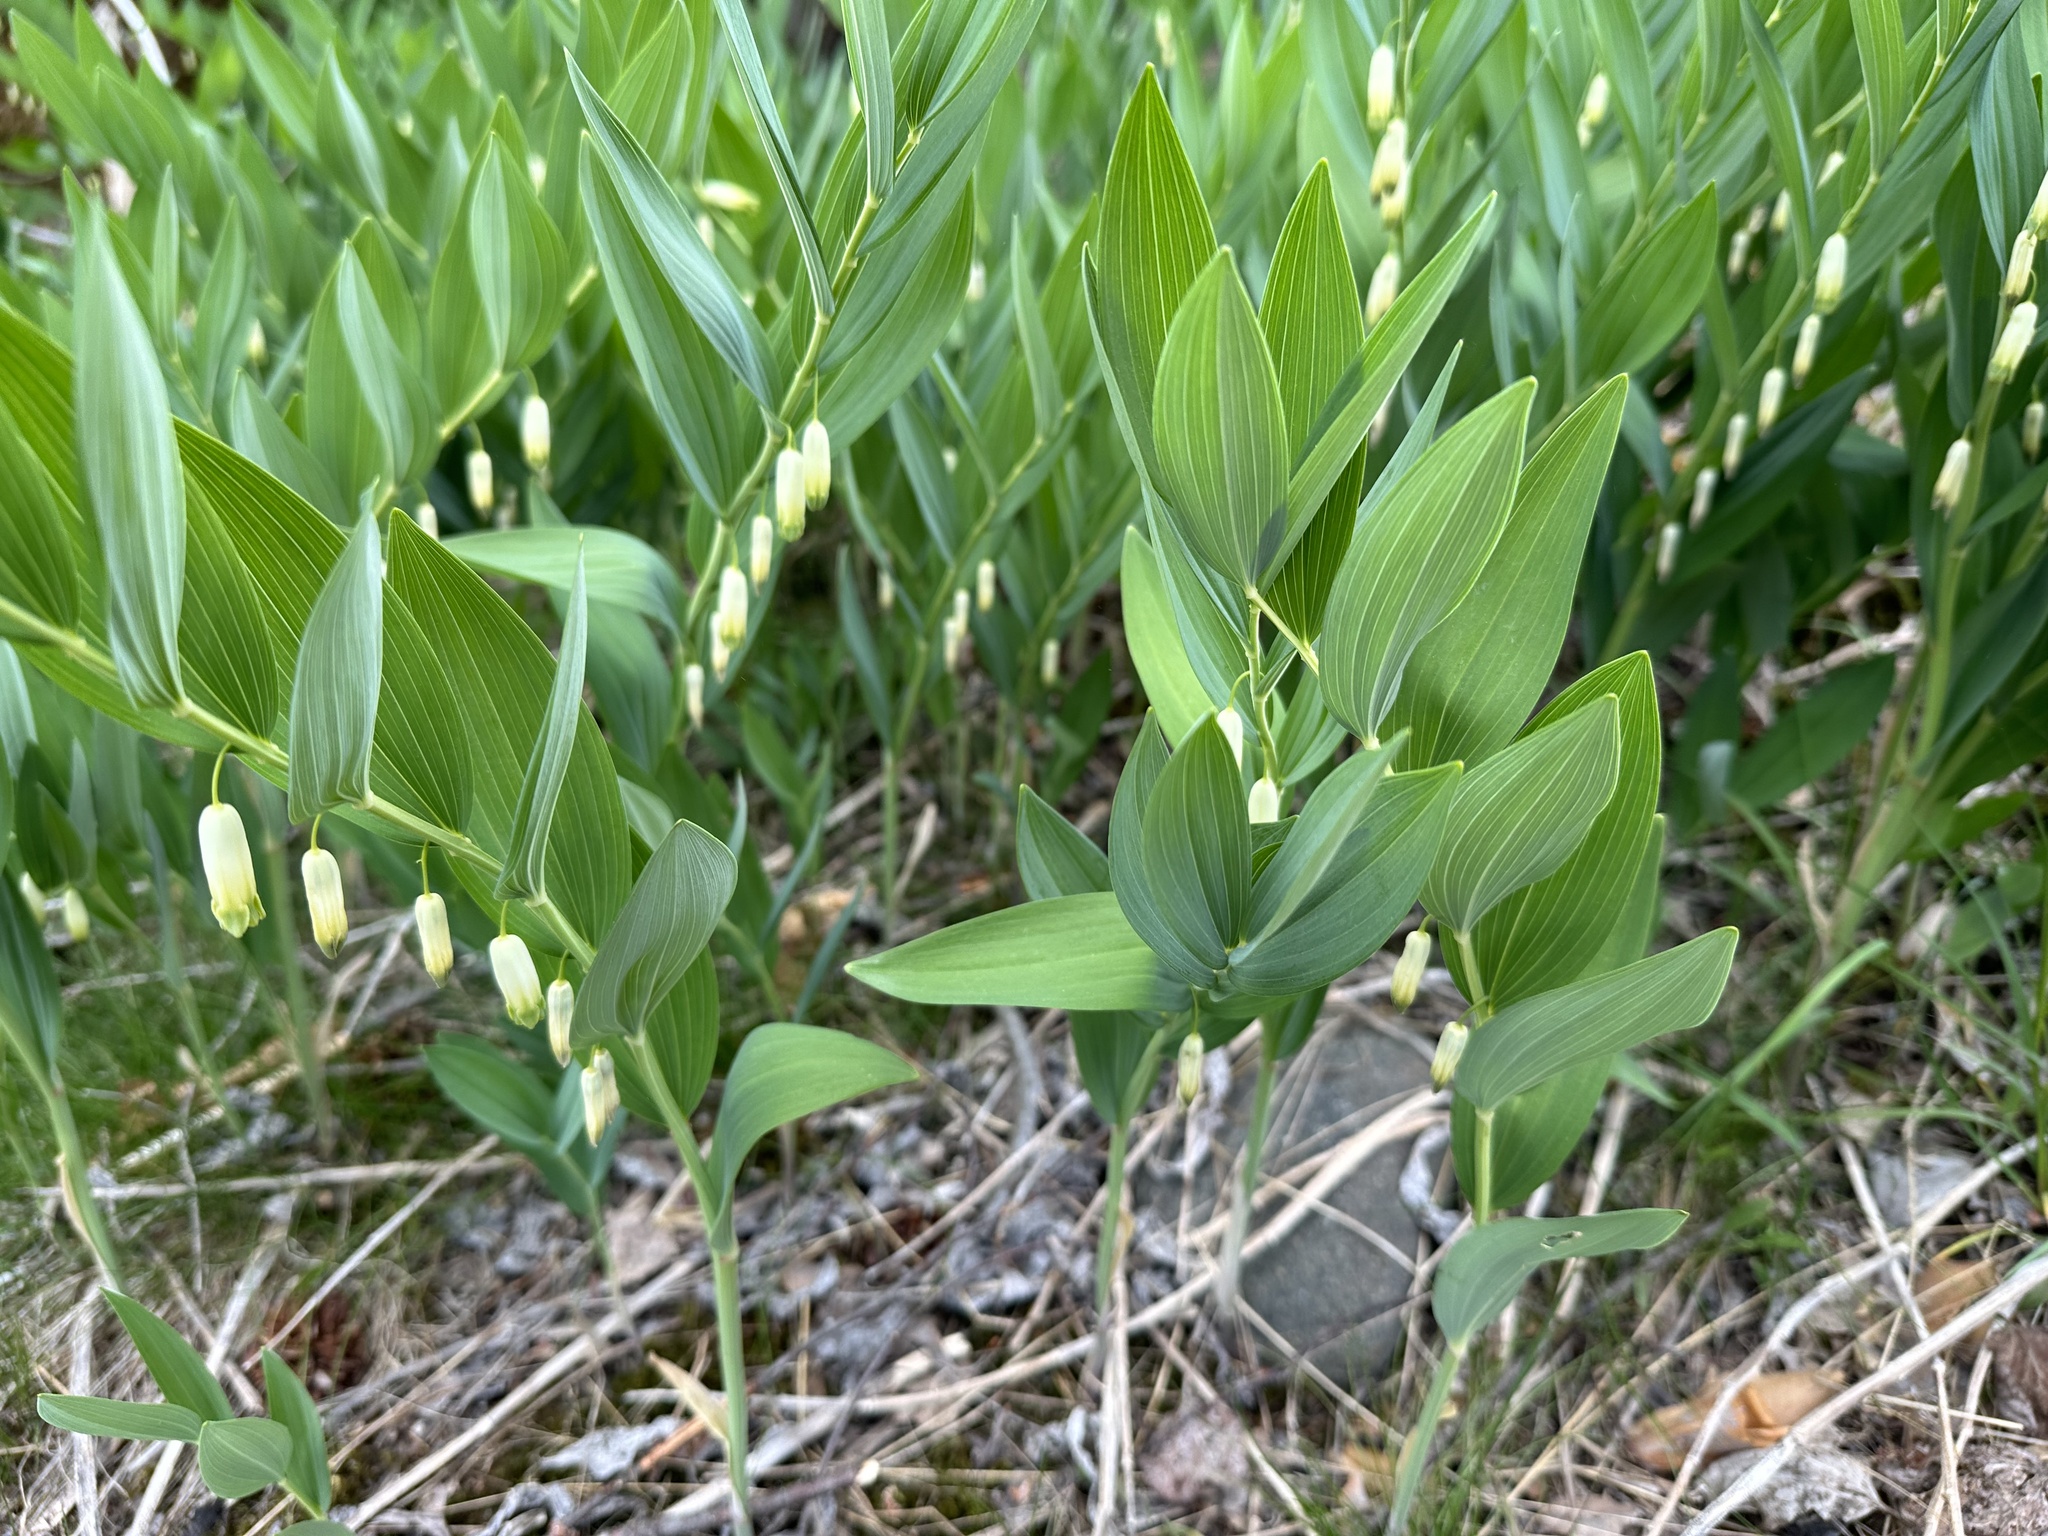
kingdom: Plantae
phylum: Tracheophyta
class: Liliopsida
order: Asparagales
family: Asparagaceae
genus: Polygonatum
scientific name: Polygonatum odoratum
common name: Angular solomon's-seal
